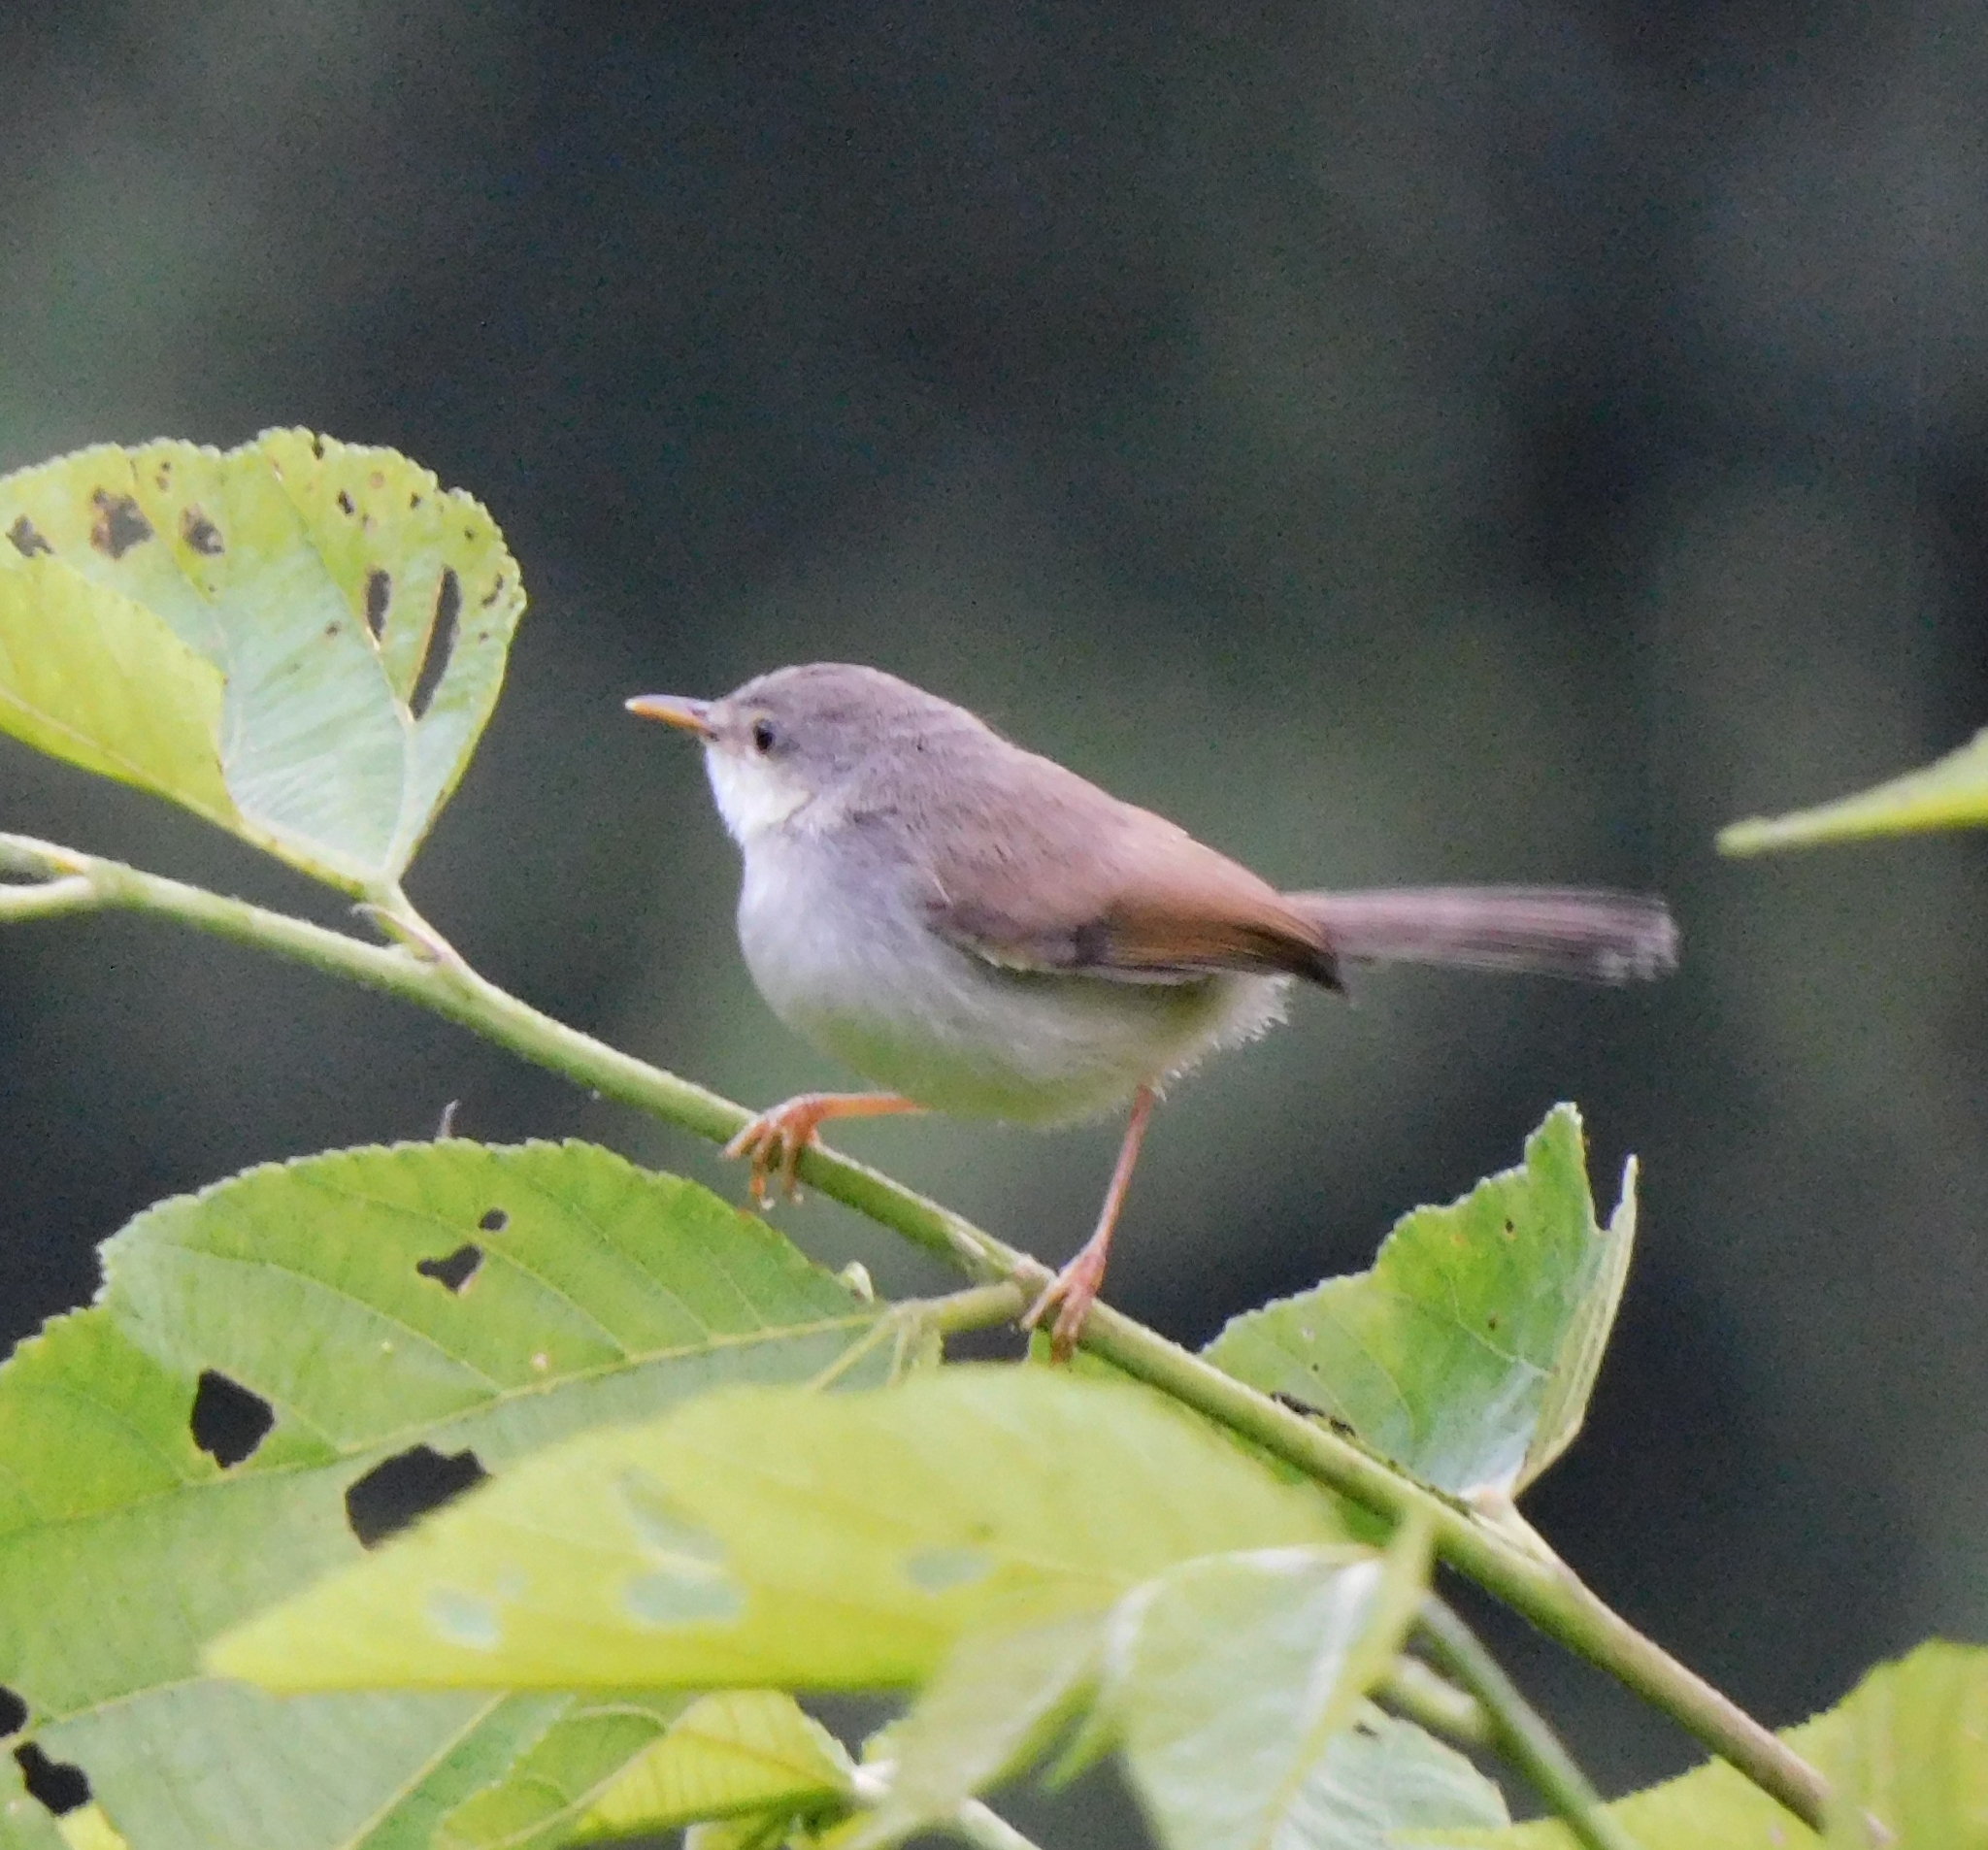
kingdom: Animalia
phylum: Chordata
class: Aves
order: Passeriformes
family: Cisticolidae
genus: Prinia
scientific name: Prinia hodgsonii
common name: Grey-breasted prinia
